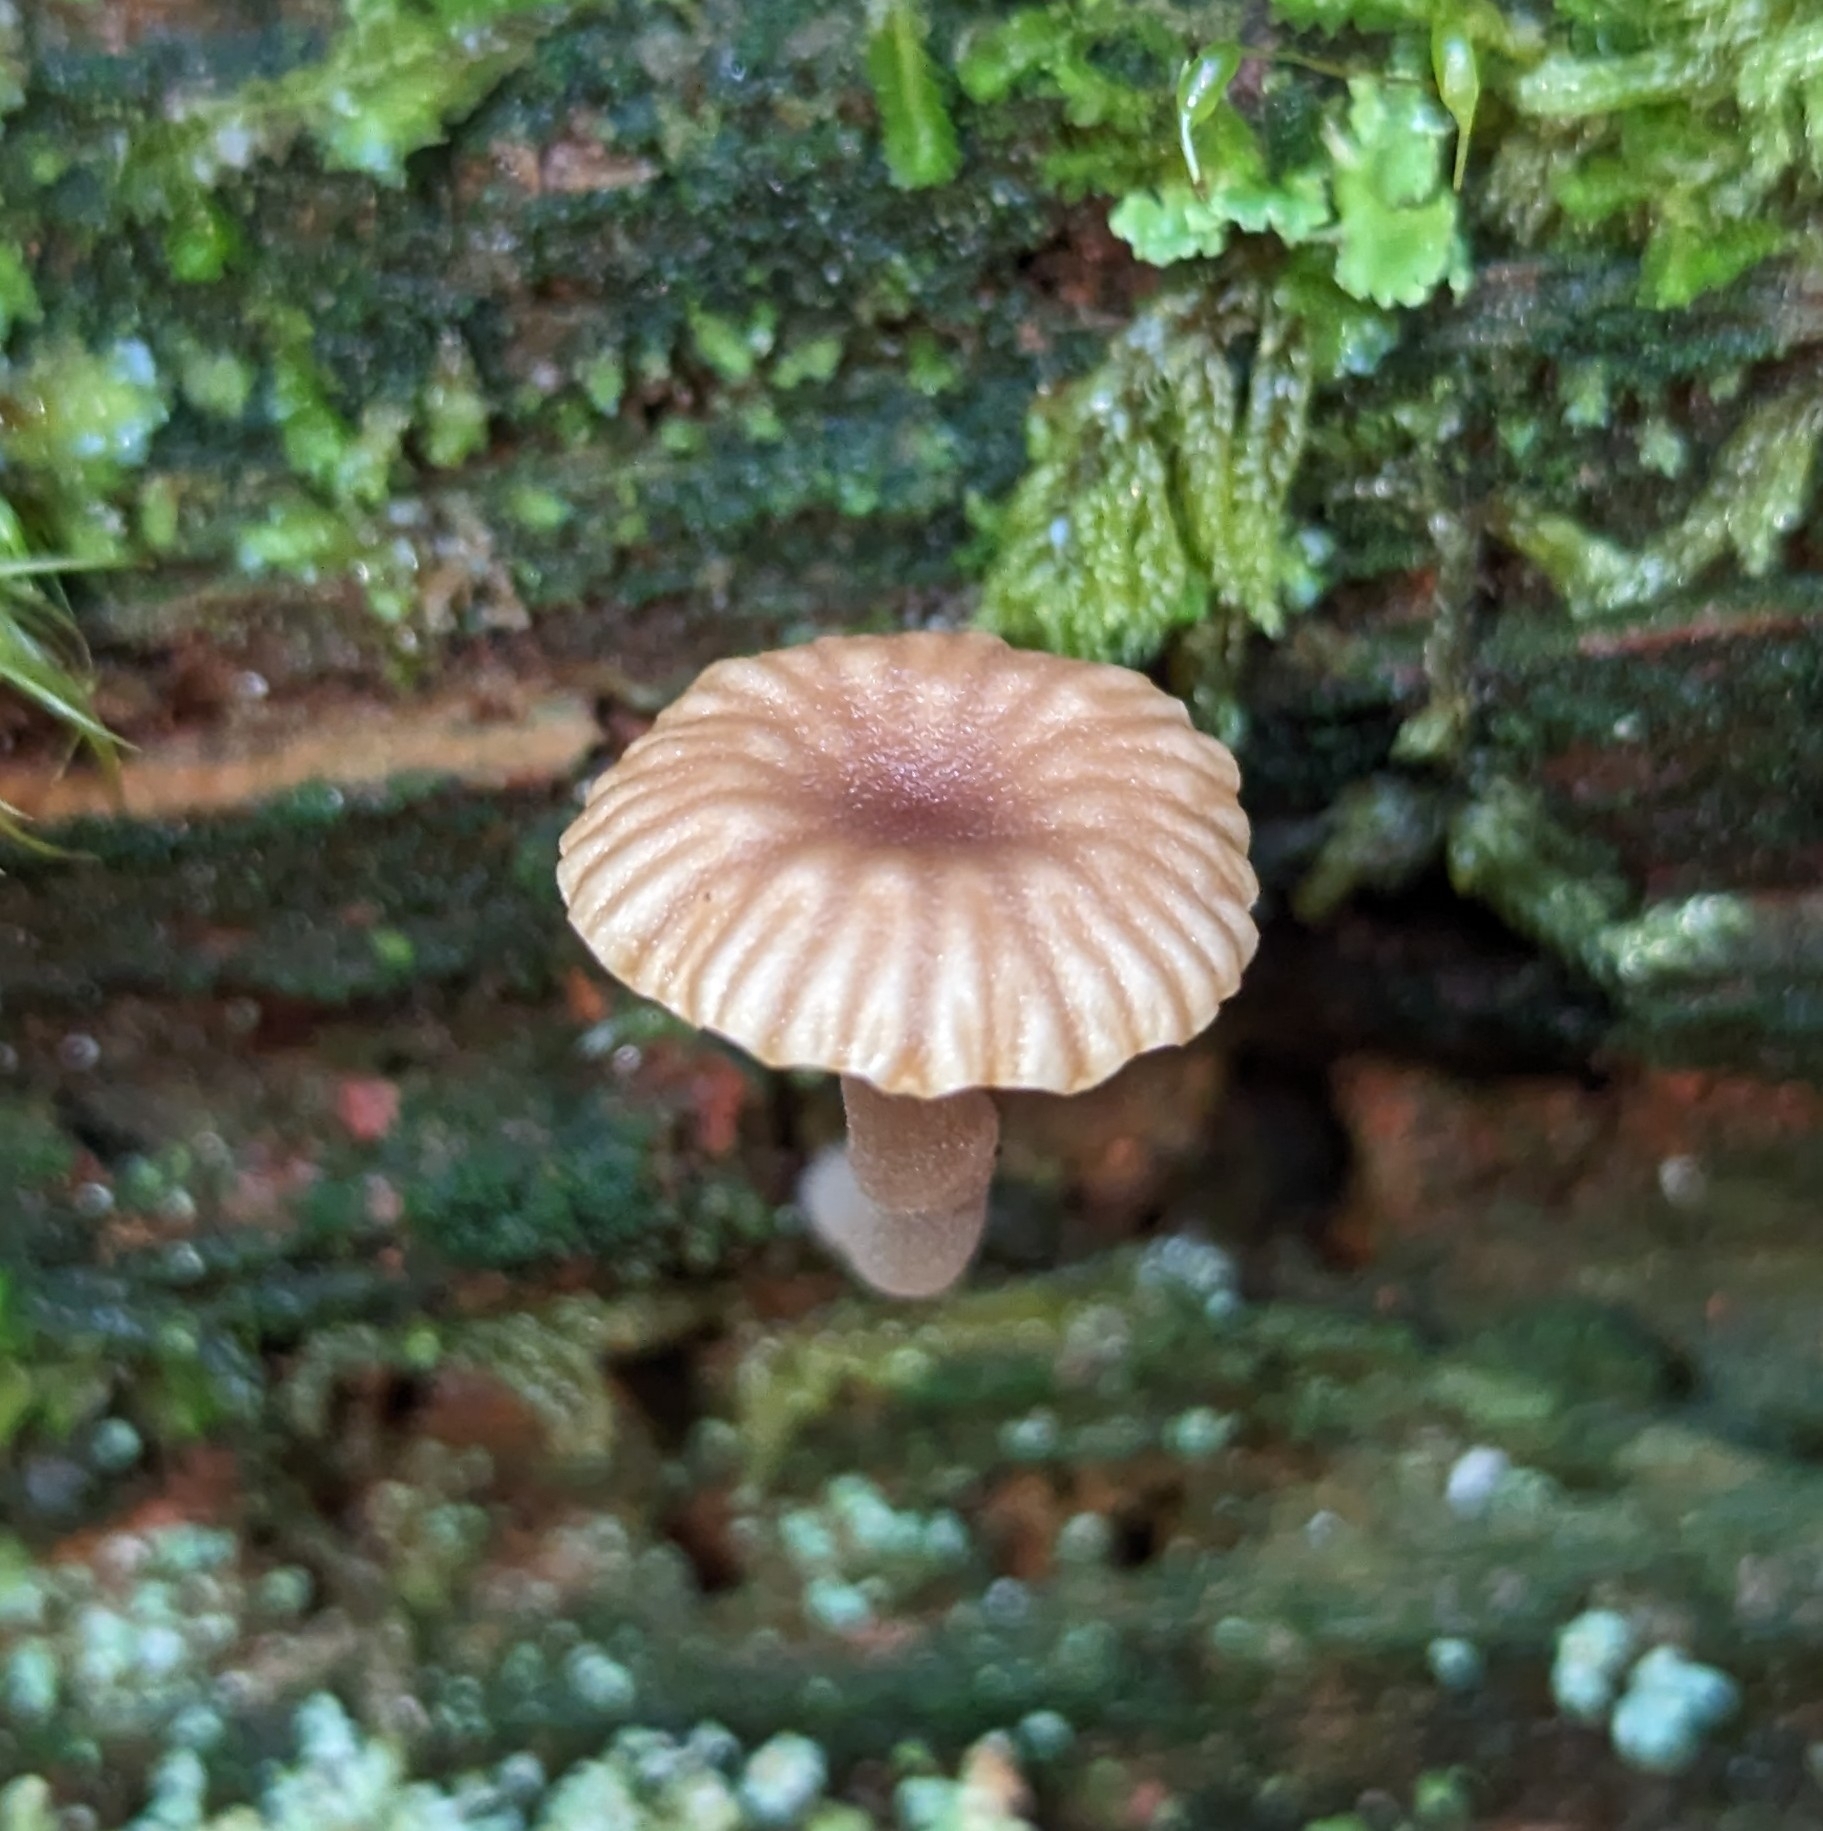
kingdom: Fungi
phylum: Basidiomycota
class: Agaricomycetes
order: Agaricales
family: Hygrophoraceae
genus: Lichenomphalia
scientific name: Lichenomphalia
